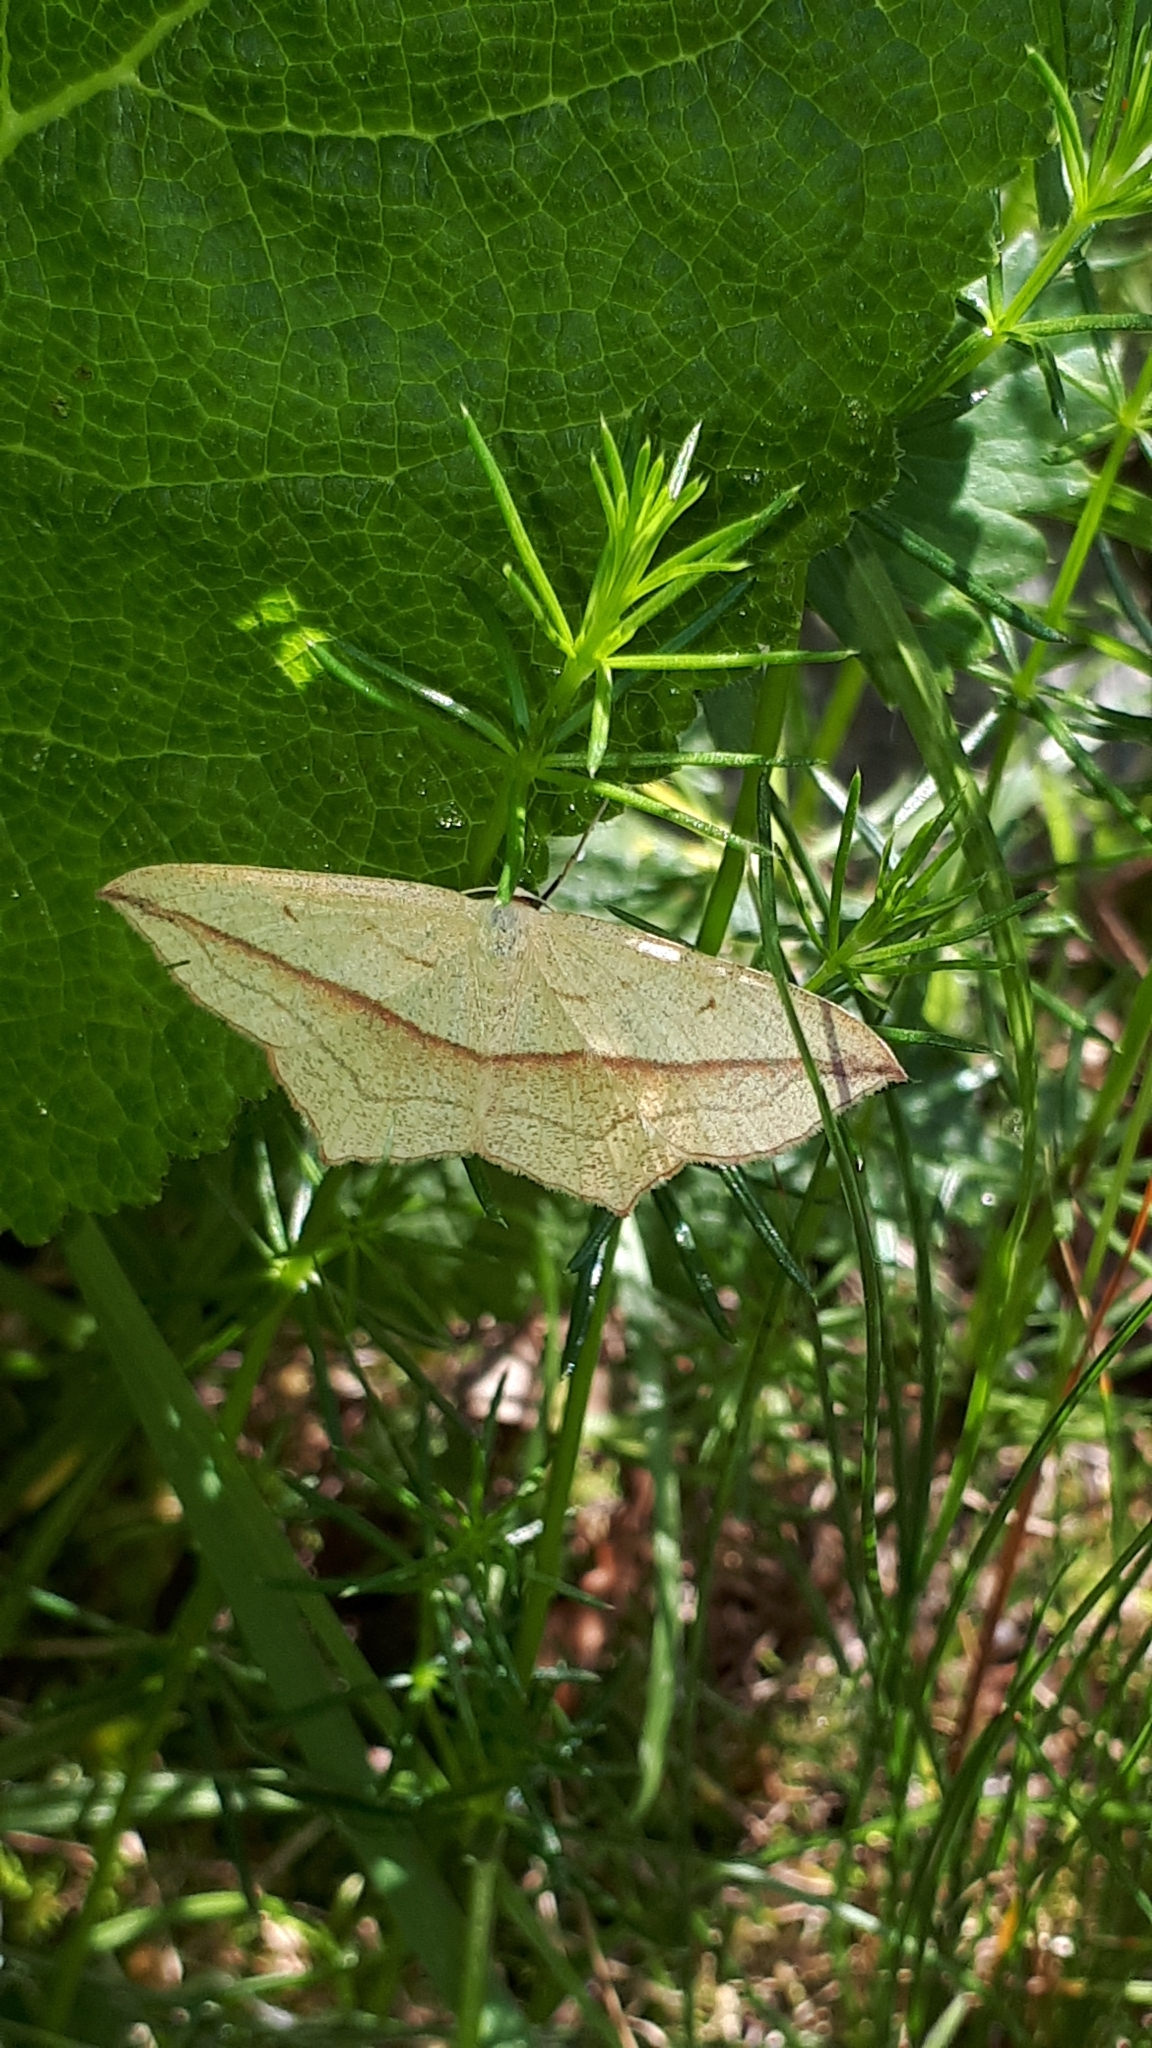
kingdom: Animalia
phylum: Arthropoda
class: Insecta
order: Lepidoptera
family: Geometridae
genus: Timandra
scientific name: Timandra comae
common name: Blood-vein
